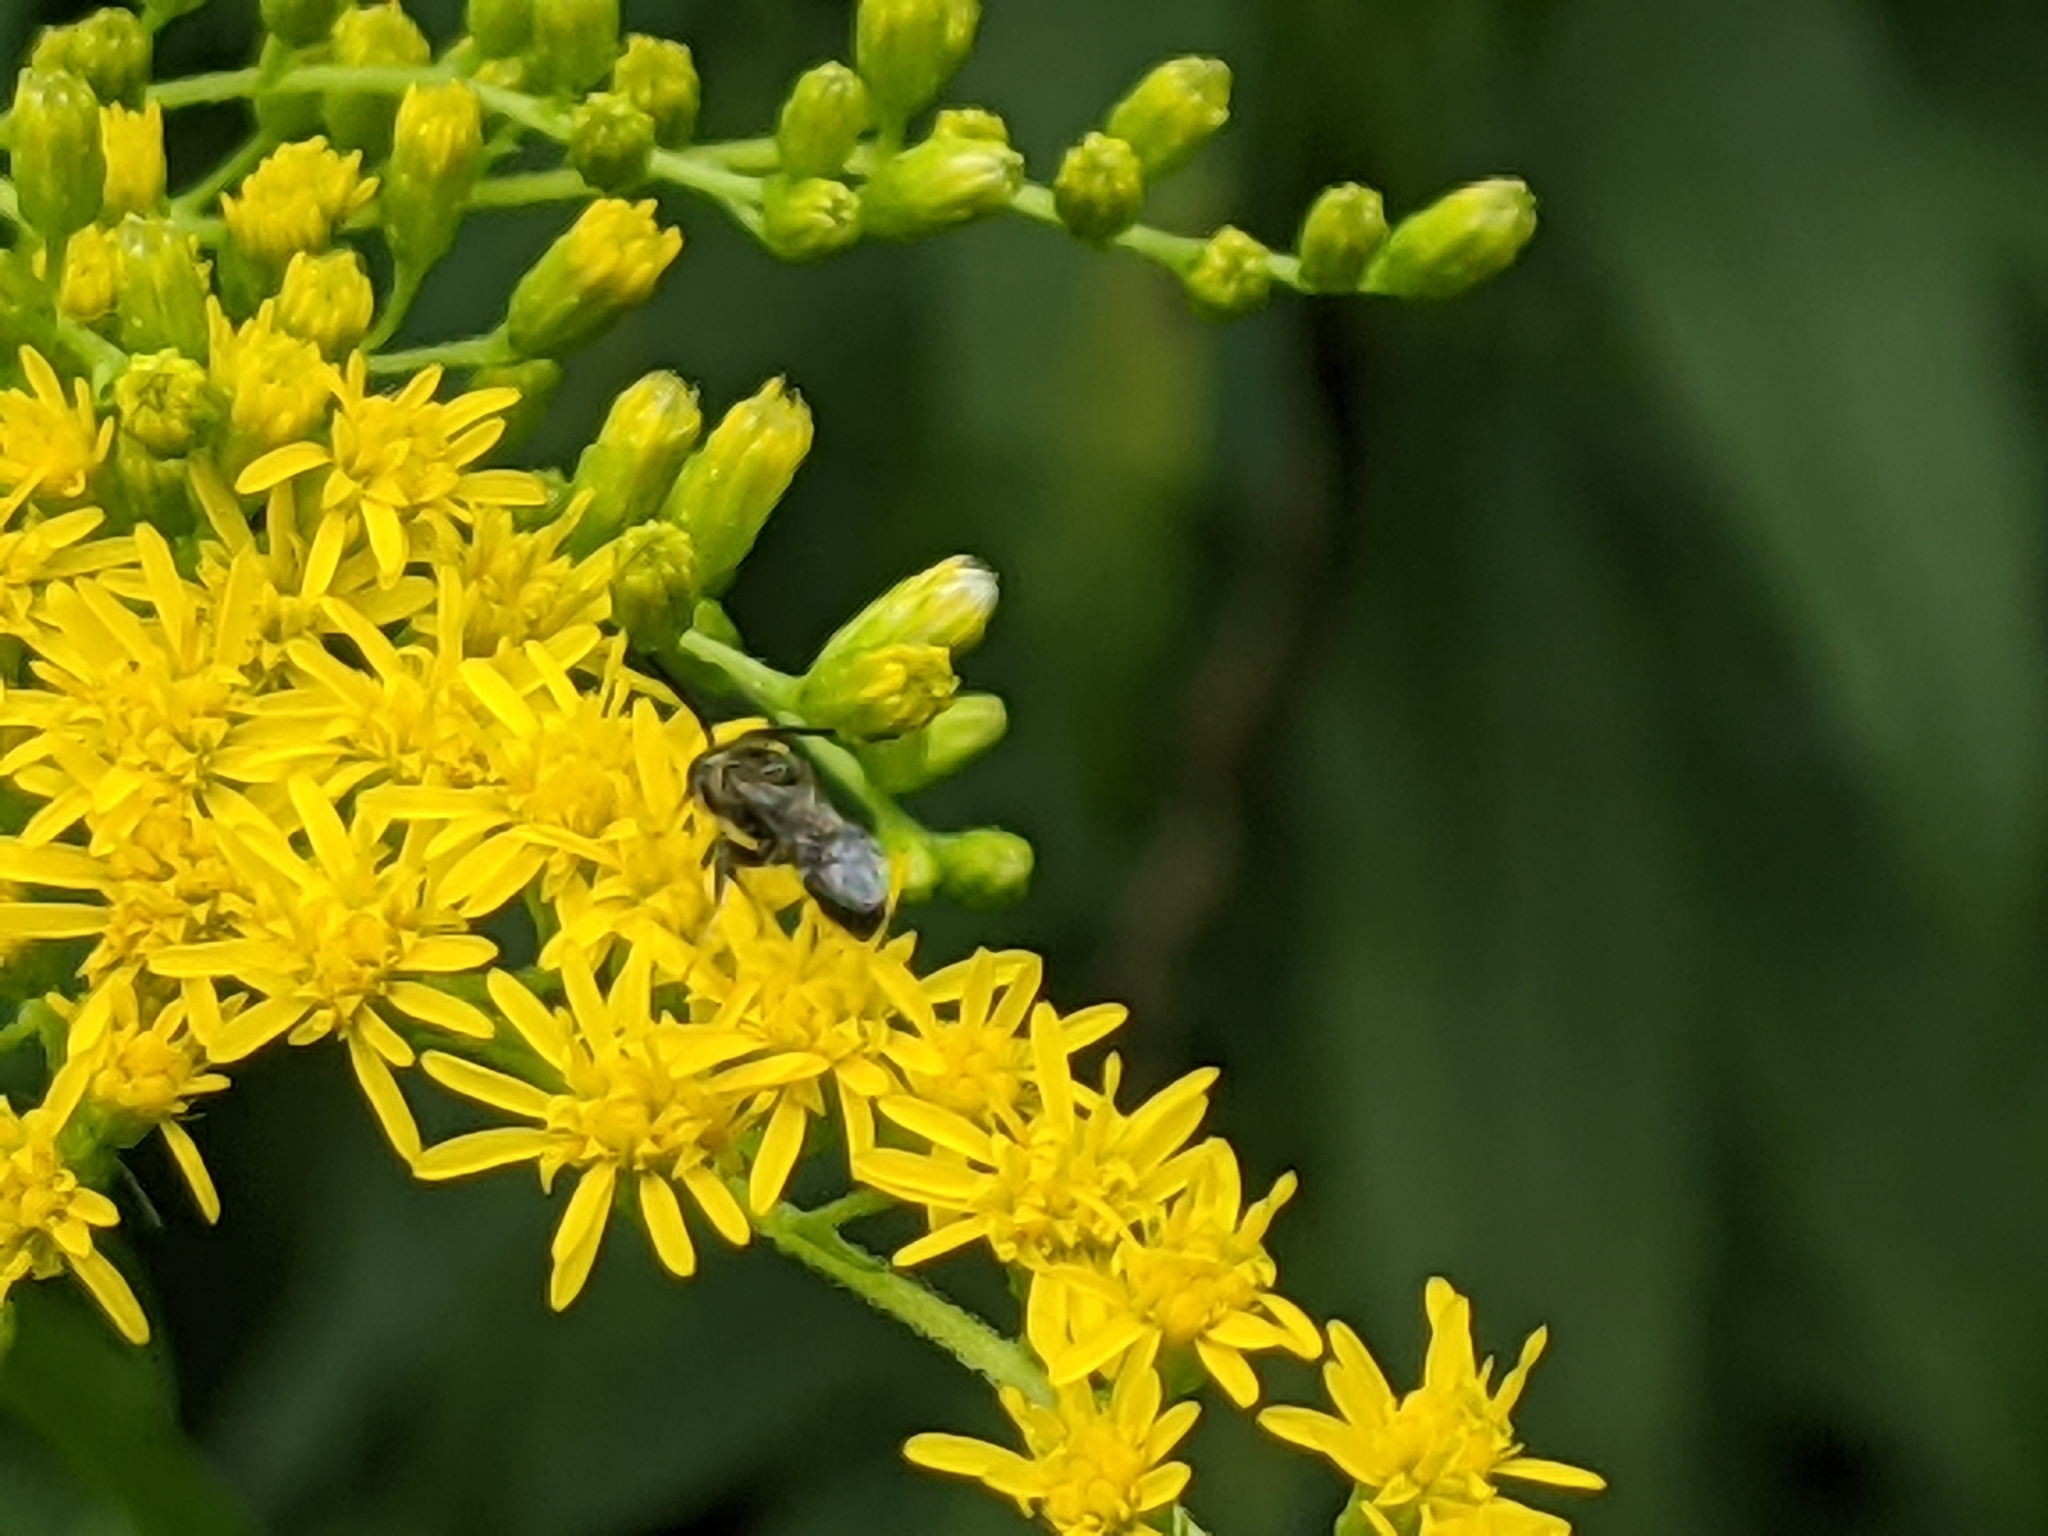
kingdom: Animalia
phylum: Arthropoda
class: Insecta
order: Hymenoptera
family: Halictidae
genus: Dialictus
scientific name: Dialictus
